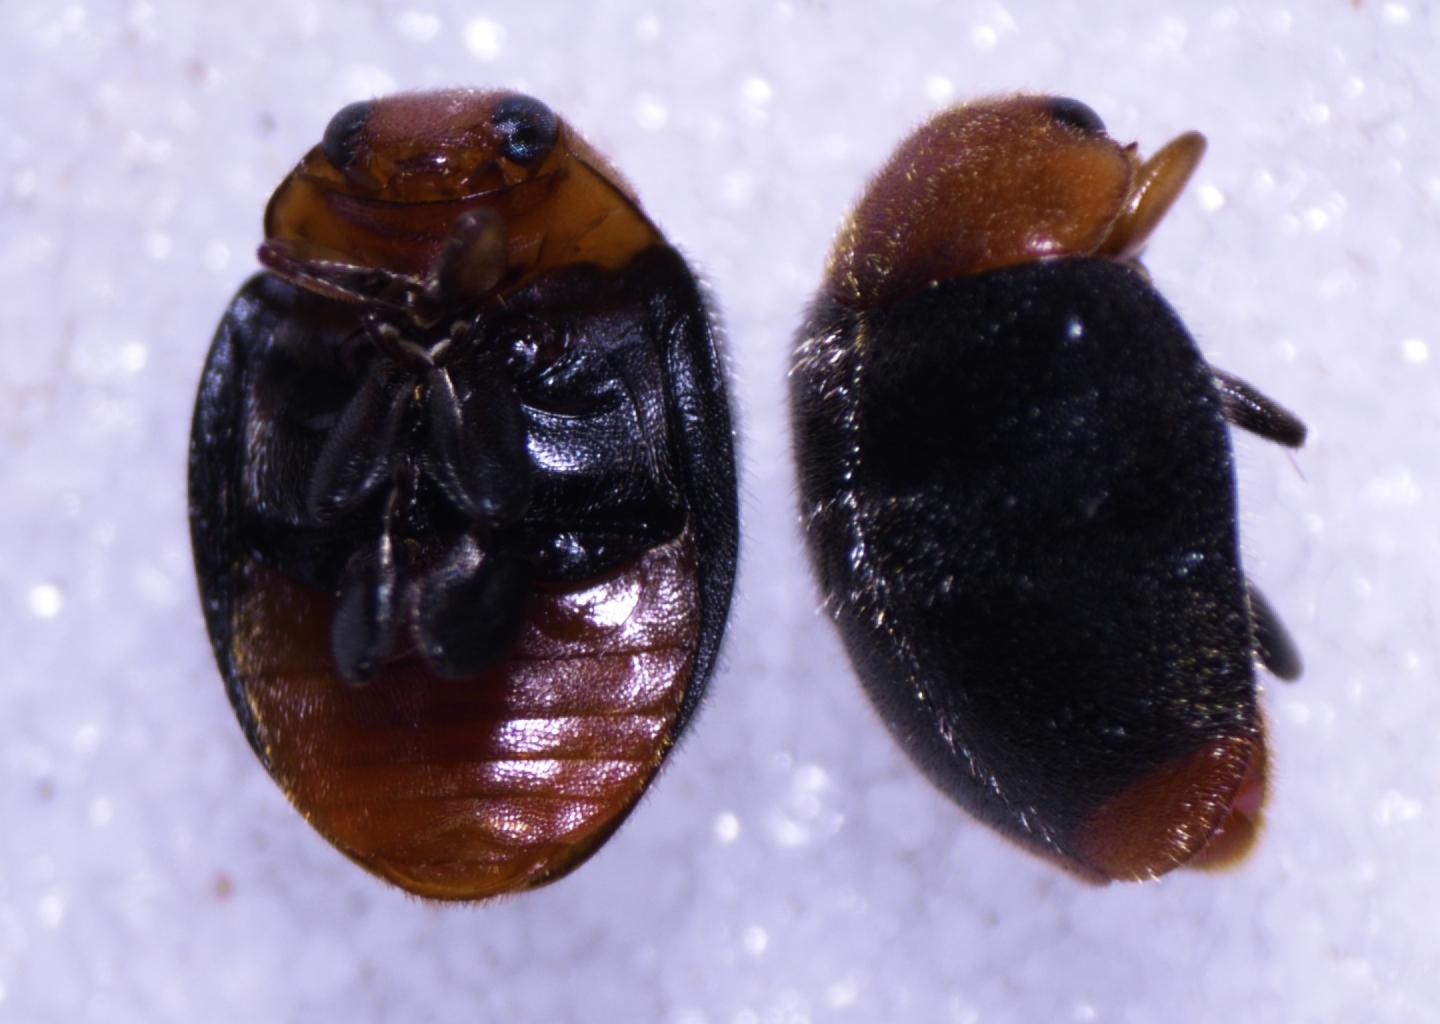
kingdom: Animalia
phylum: Arthropoda
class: Insecta
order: Coleoptera
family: Coccinellidae
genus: Cryptolaemus
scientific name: Cryptolaemus montrouzieri
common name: Mealybug destroyer
